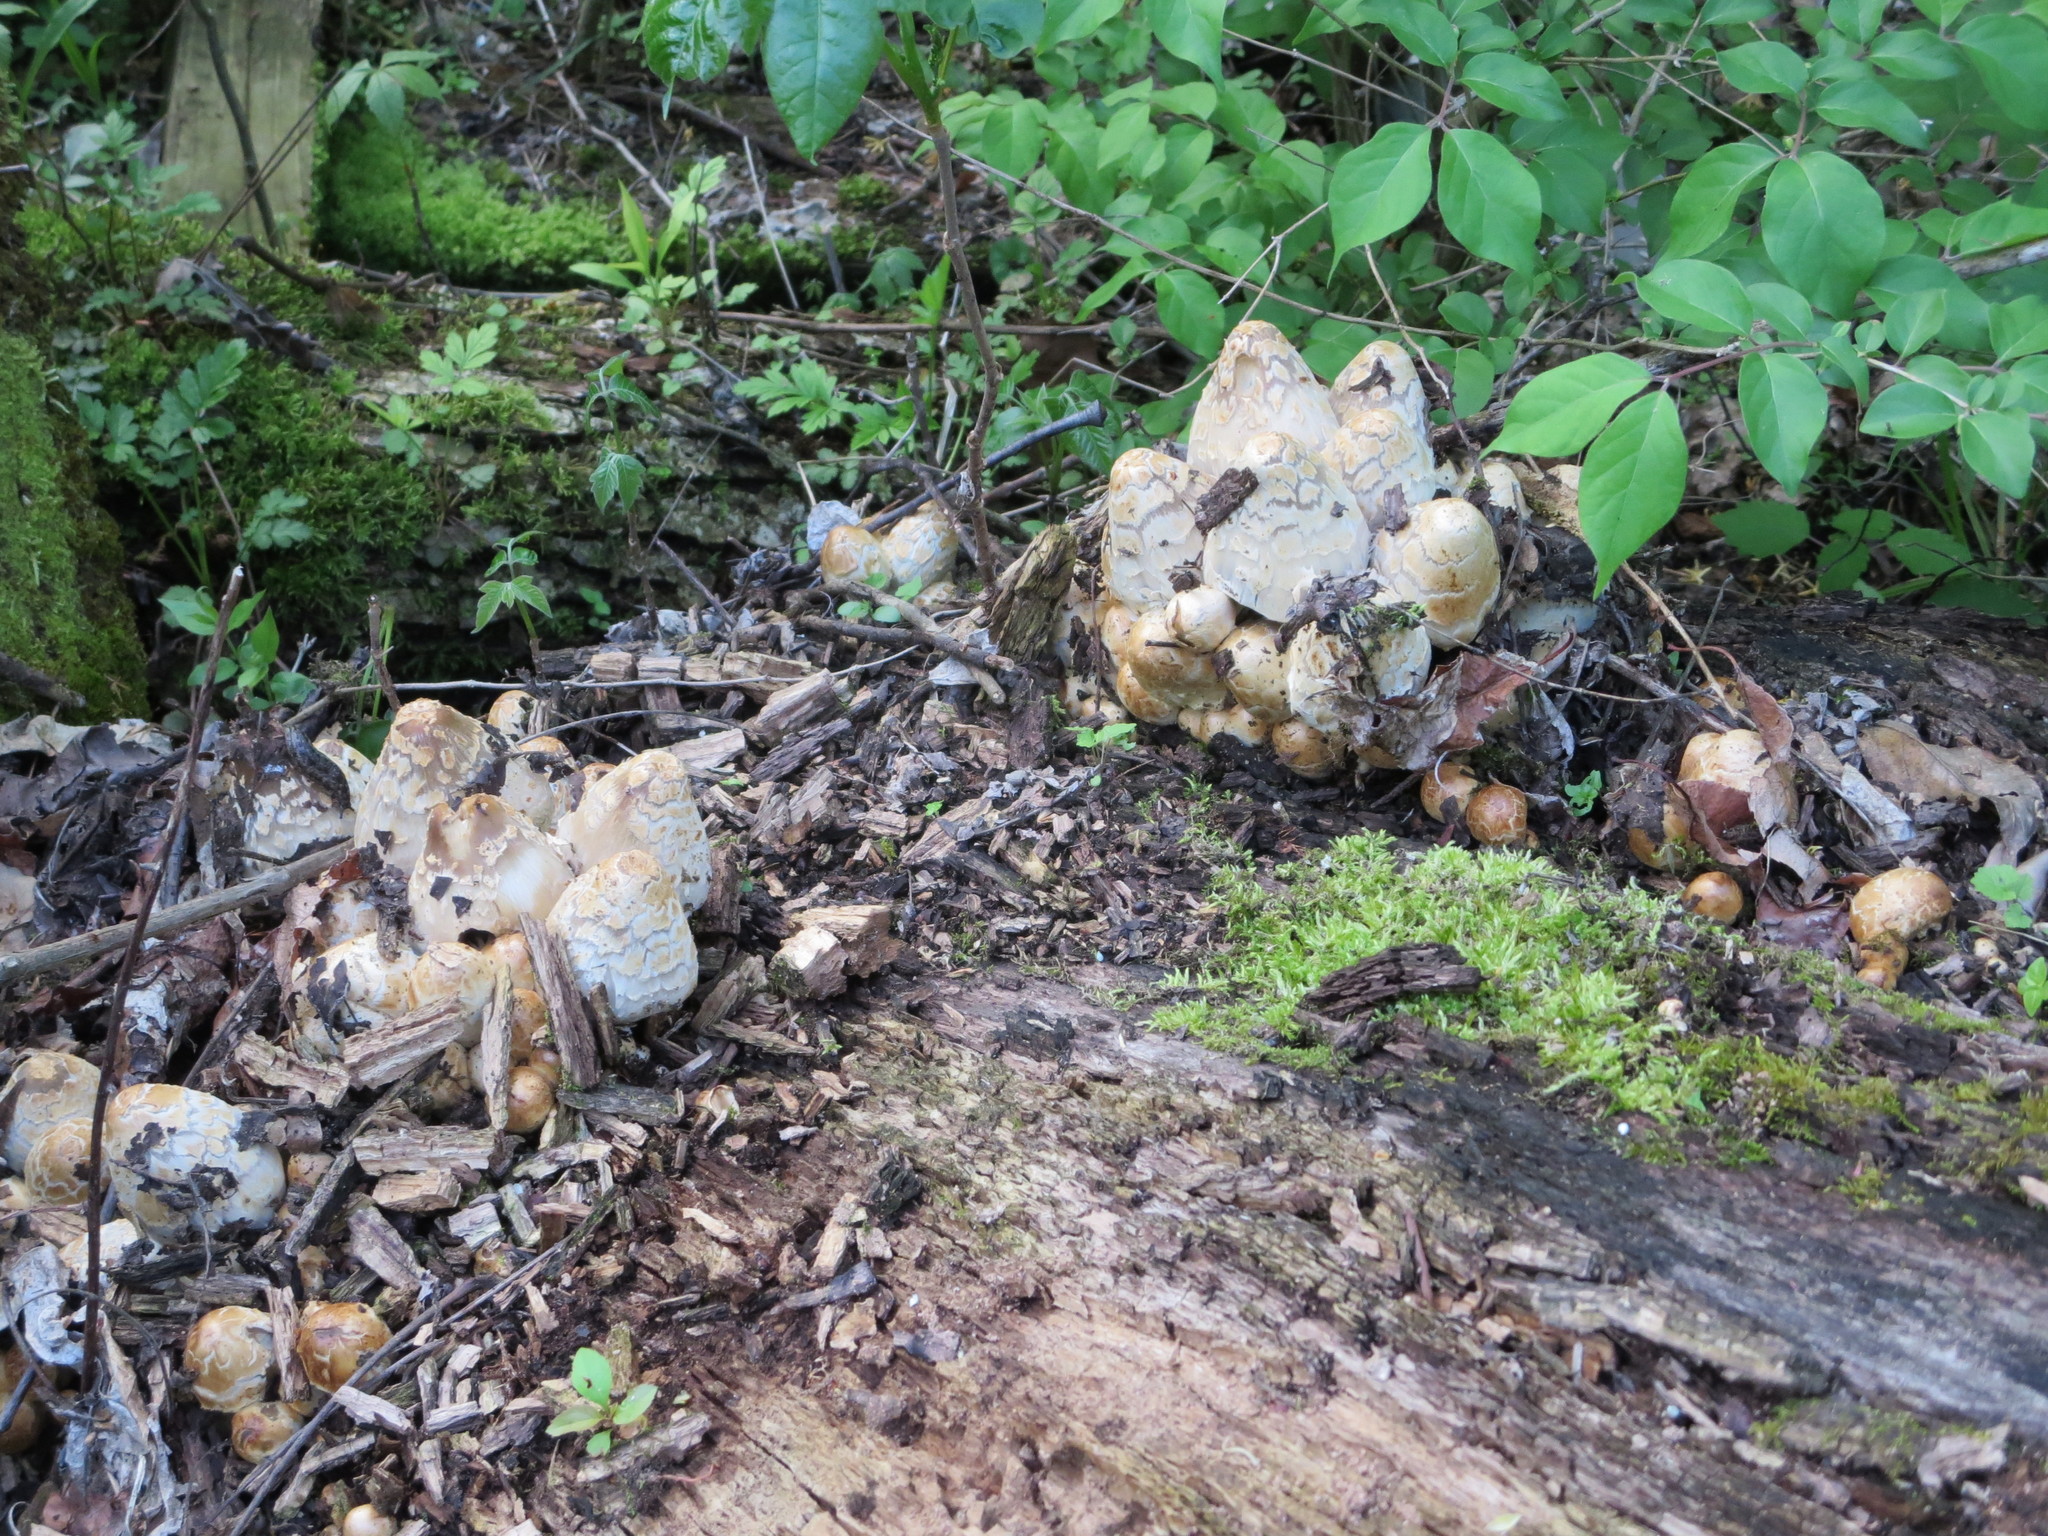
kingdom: Fungi
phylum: Basidiomycota
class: Agaricomycetes
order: Agaricales
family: Psathyrellaceae
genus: Coprinopsis
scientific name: Coprinopsis variegata
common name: Scaly ink cap
